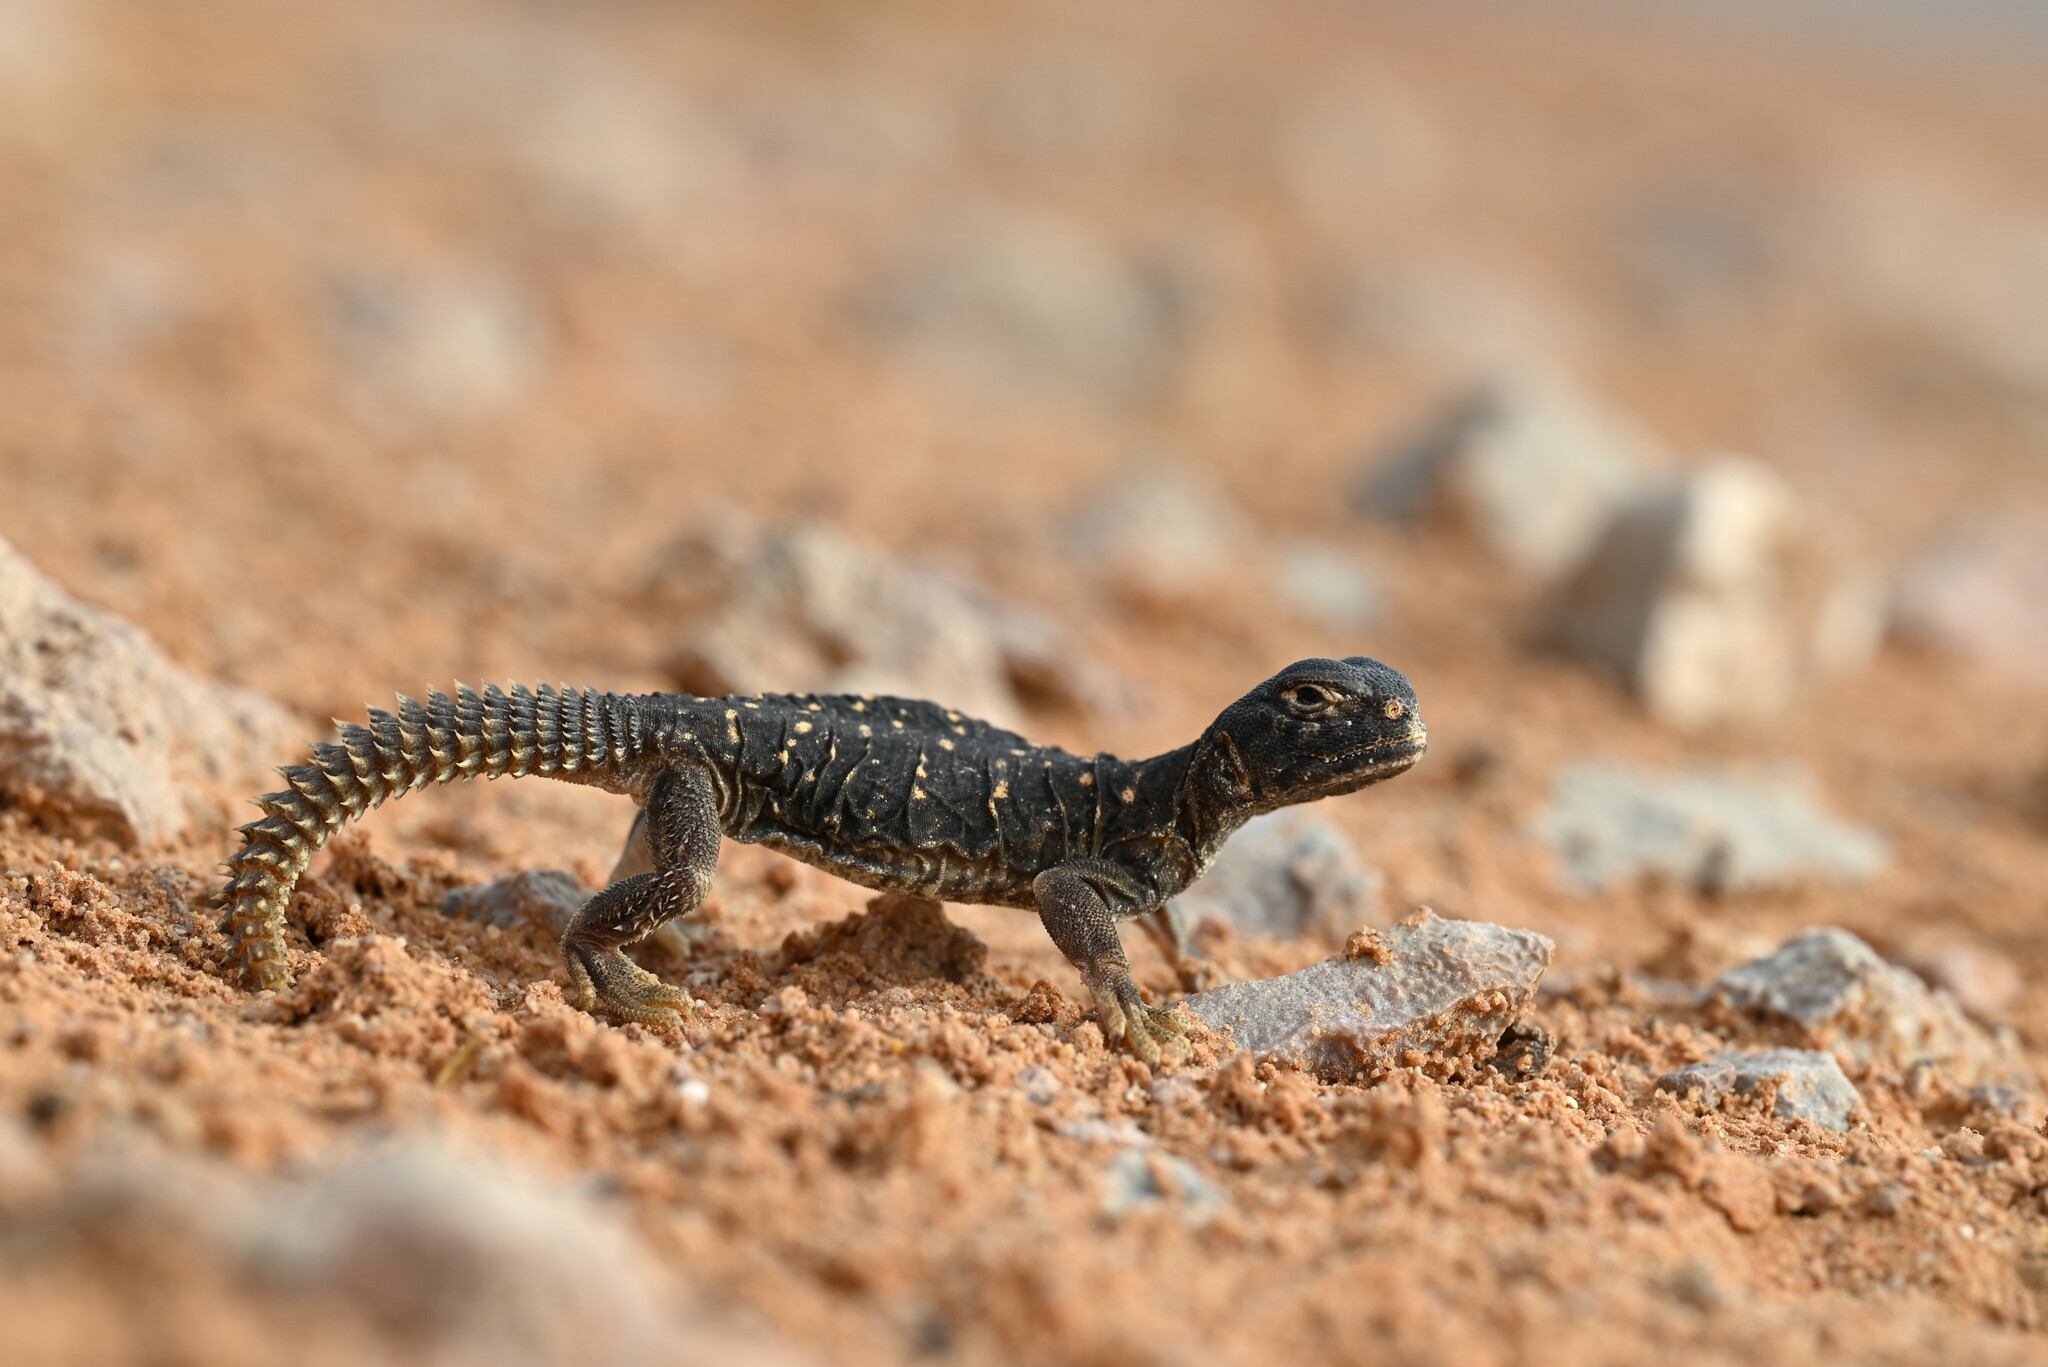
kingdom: Animalia
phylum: Chordata
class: Squamata
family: Agamidae
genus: Uromastyx
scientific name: Uromastyx aegyptia
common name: Egyptian mastigure
